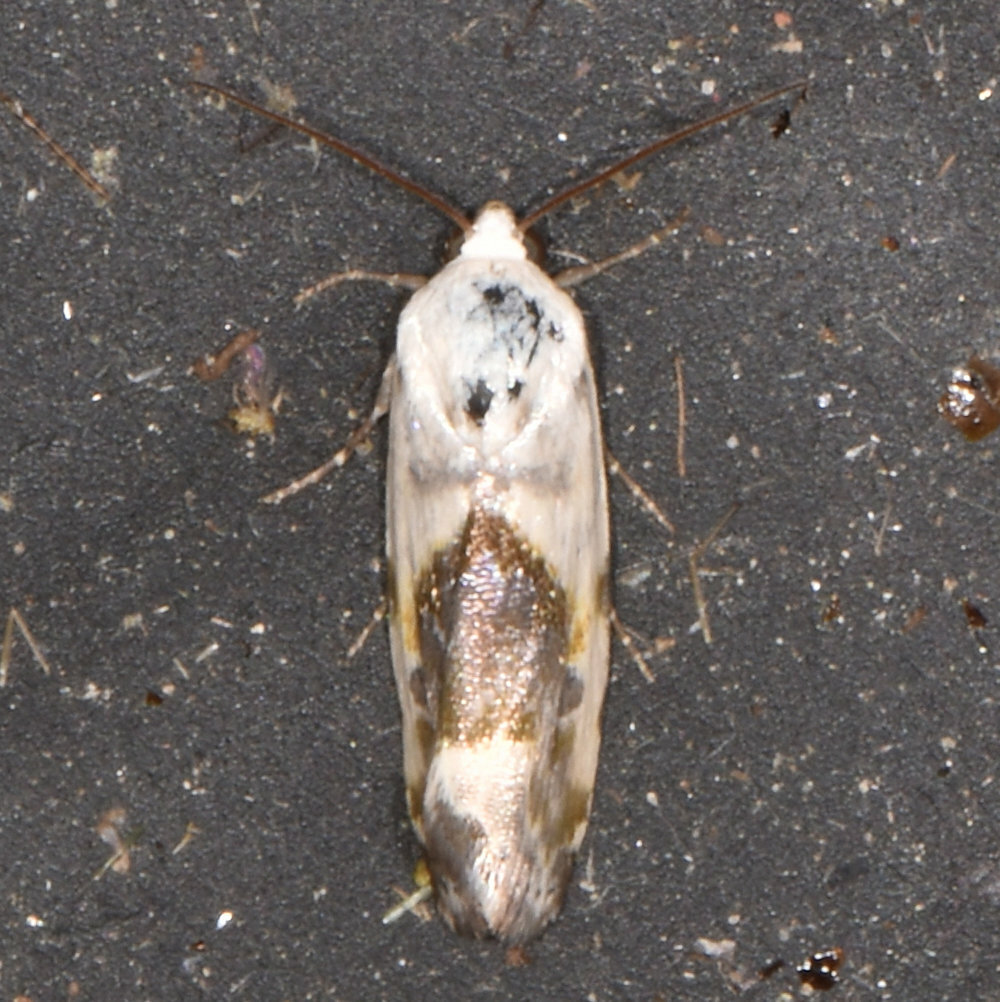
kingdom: Animalia
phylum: Arthropoda
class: Insecta
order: Lepidoptera
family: Noctuidae
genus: Acontia
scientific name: Acontia candefacta
